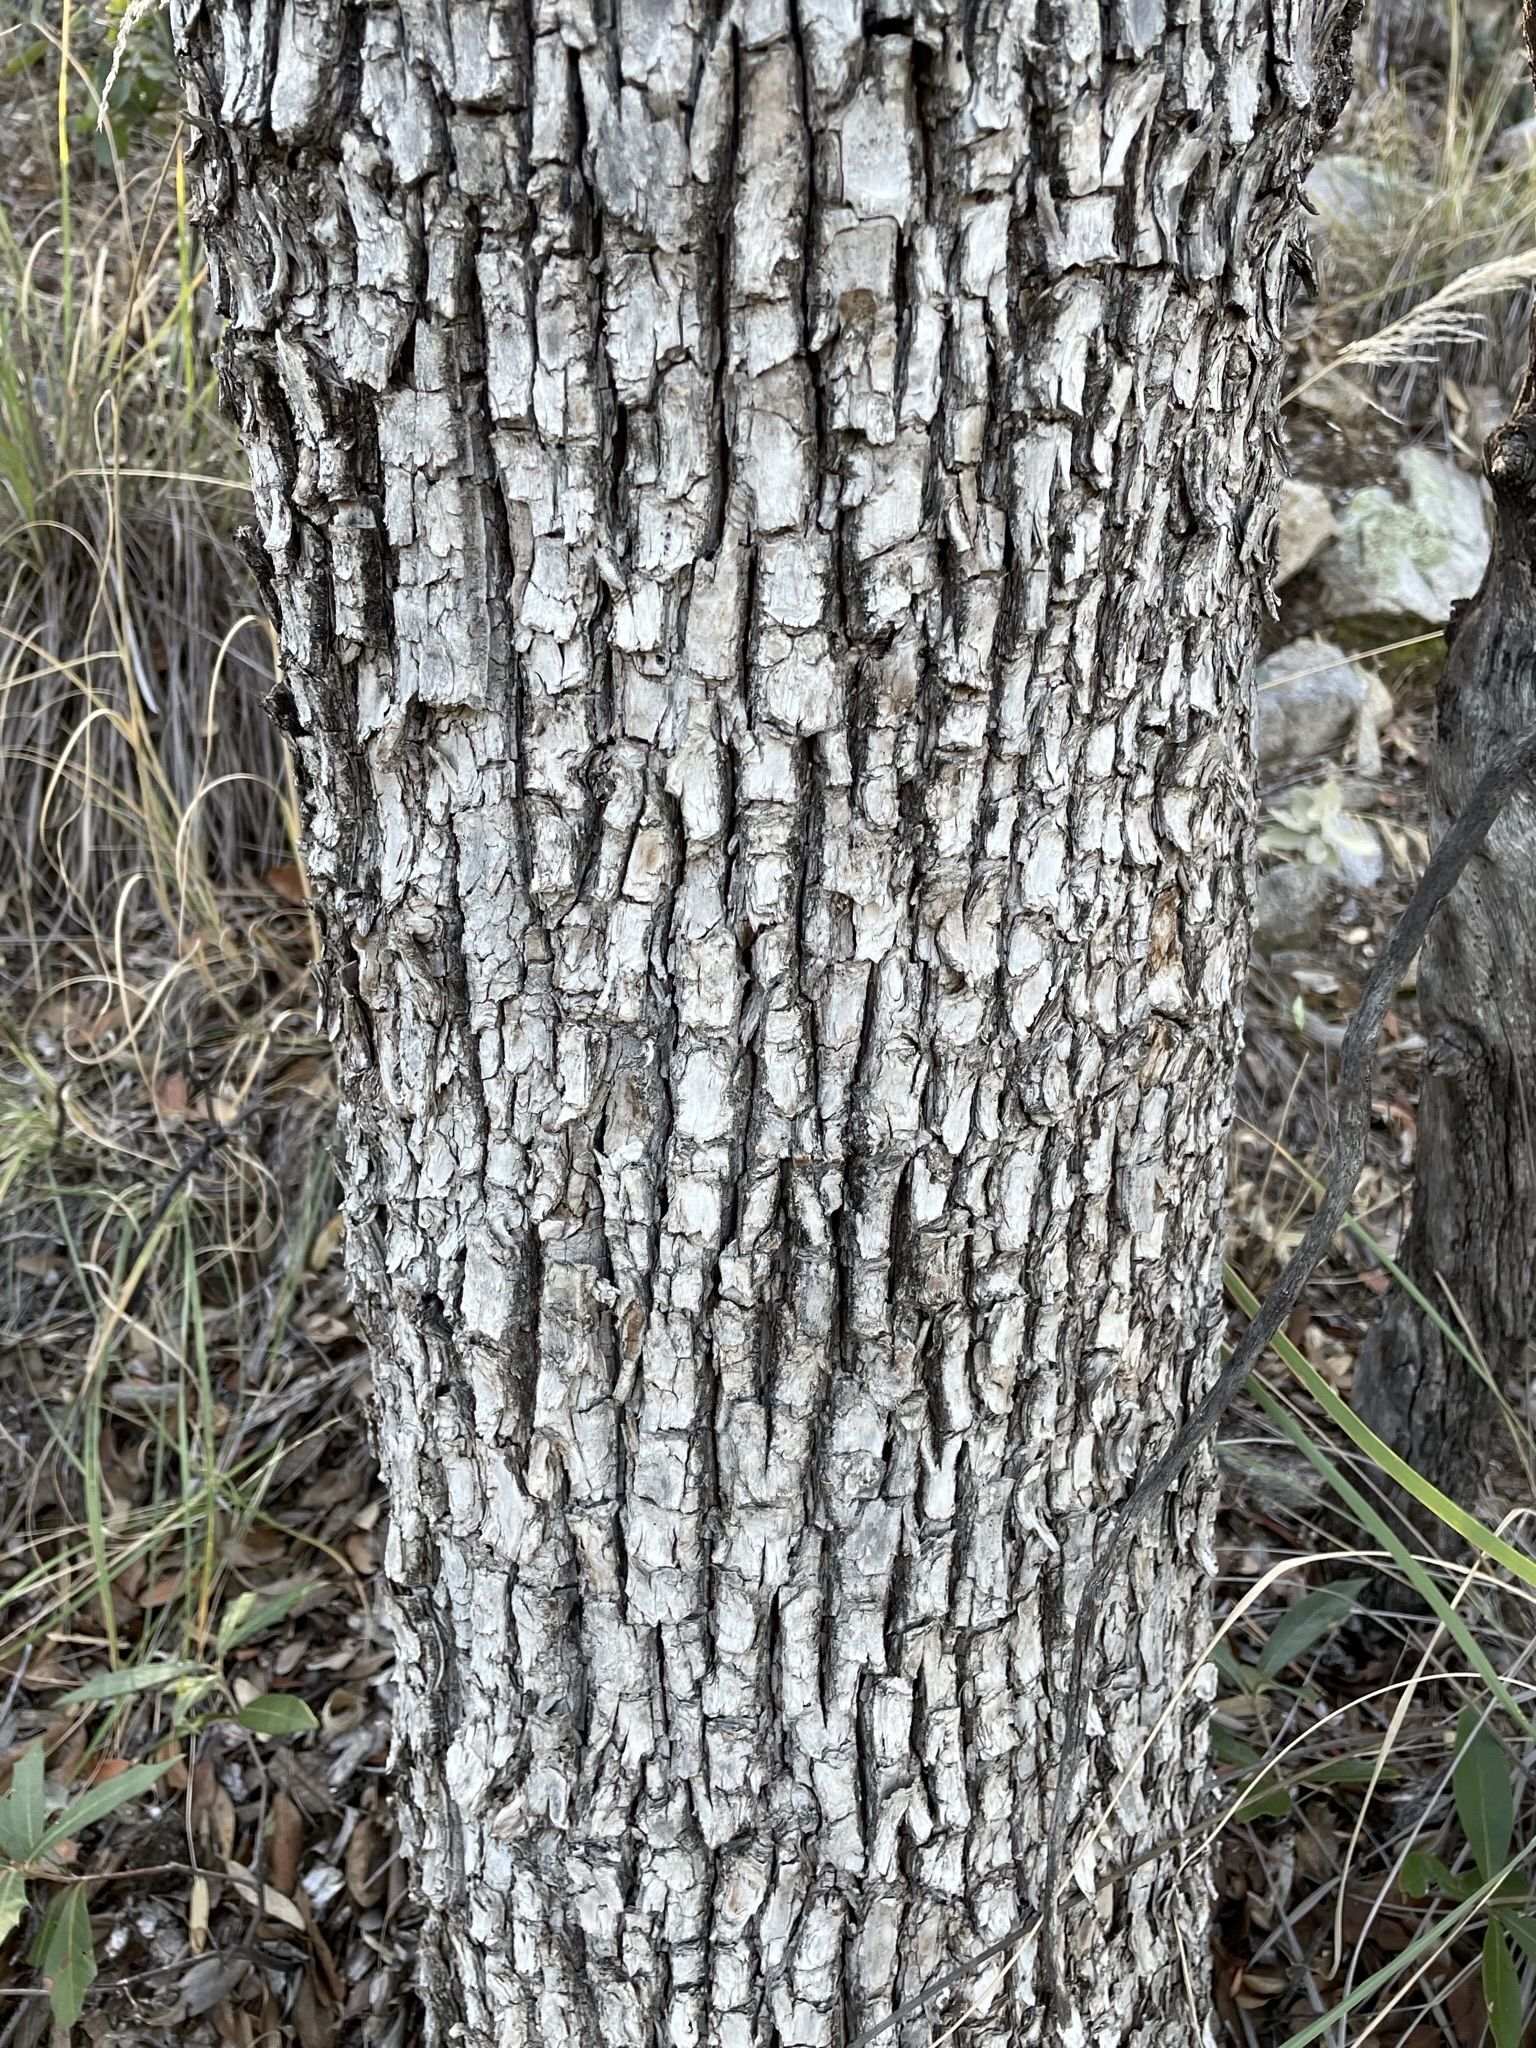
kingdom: Plantae
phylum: Tracheophyta
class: Magnoliopsida
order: Ericales
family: Ericaceae
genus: Arbutus
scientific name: Arbutus arizonica
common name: Arizona madrone
